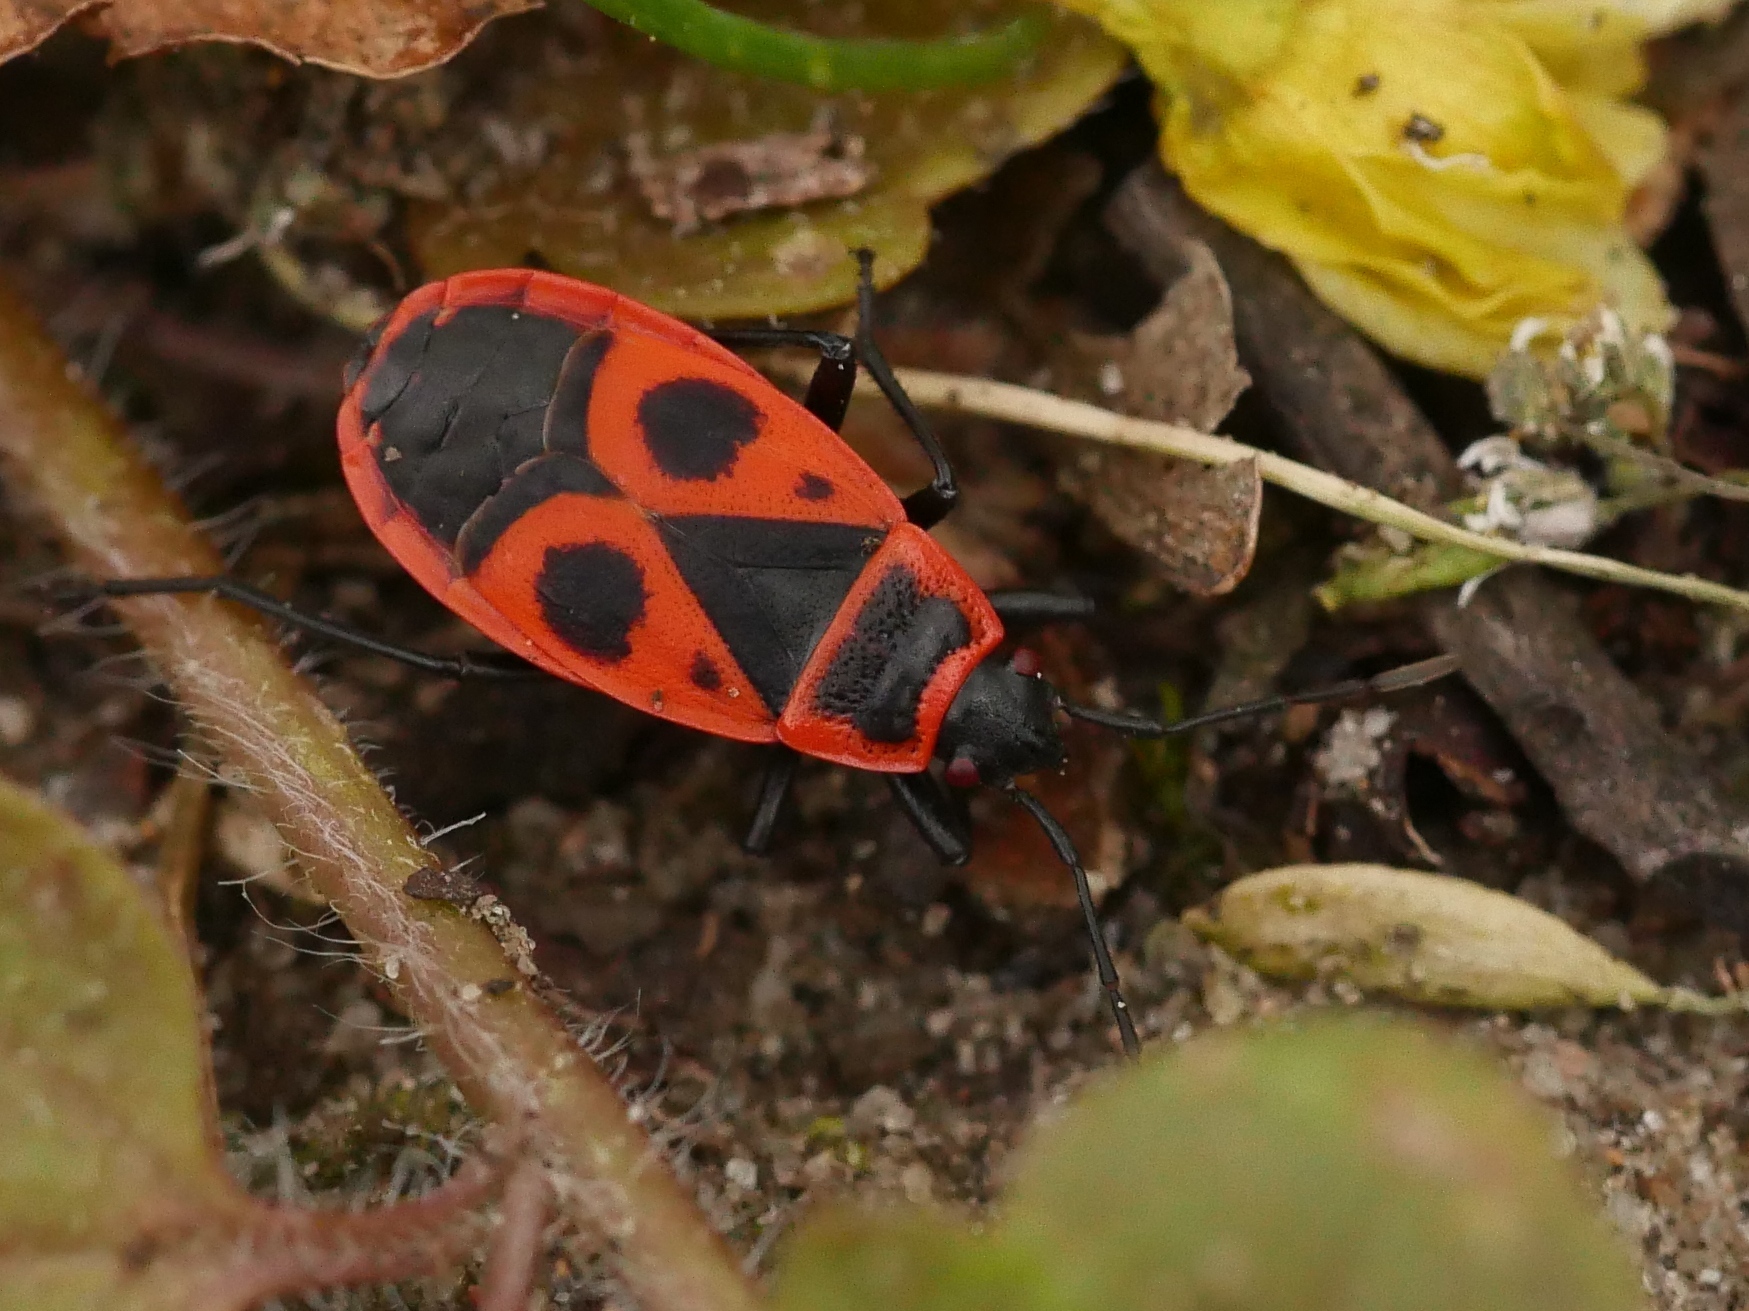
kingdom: Animalia
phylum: Arthropoda
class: Insecta
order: Hemiptera
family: Pyrrhocoridae
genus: Pyrrhocoris
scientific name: Pyrrhocoris apterus
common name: Firebug
